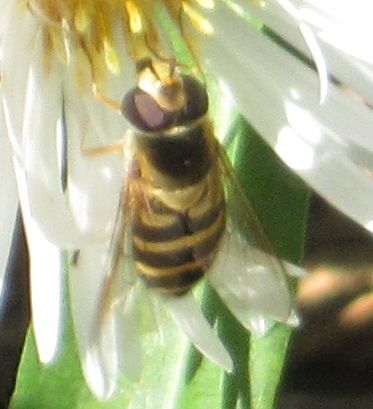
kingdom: Animalia
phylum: Arthropoda
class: Insecta
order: Diptera
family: Syrphidae
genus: Syrphus
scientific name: Syrphus
